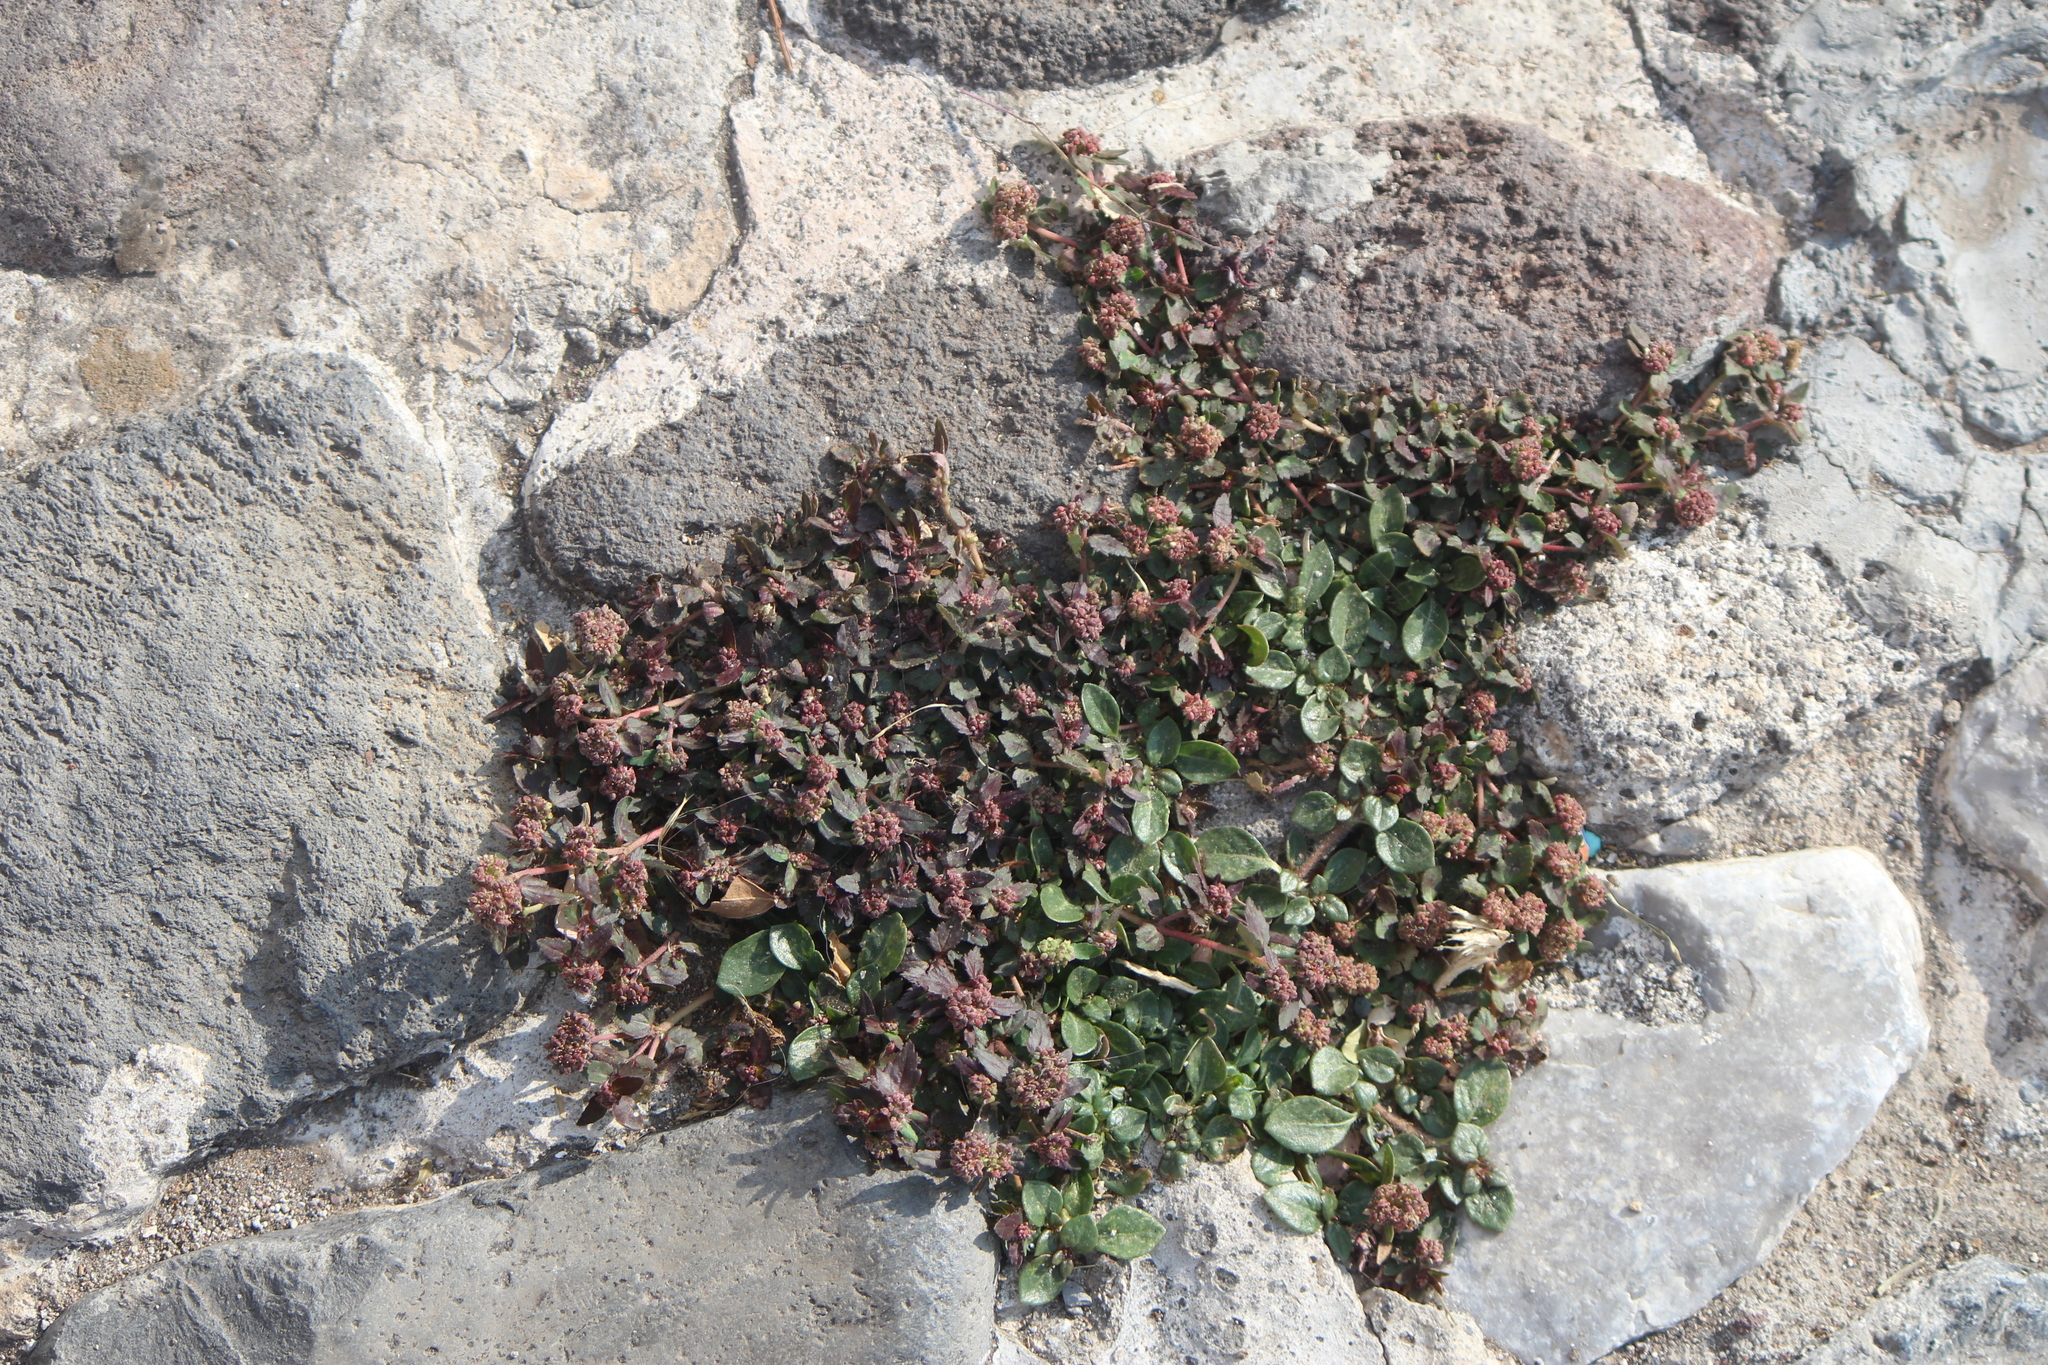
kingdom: Plantae
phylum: Tracheophyta
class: Magnoliopsida
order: Malpighiales
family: Euphorbiaceae
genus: Euphorbia
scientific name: Euphorbia ophthalmica
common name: Florida hammock sandmat
